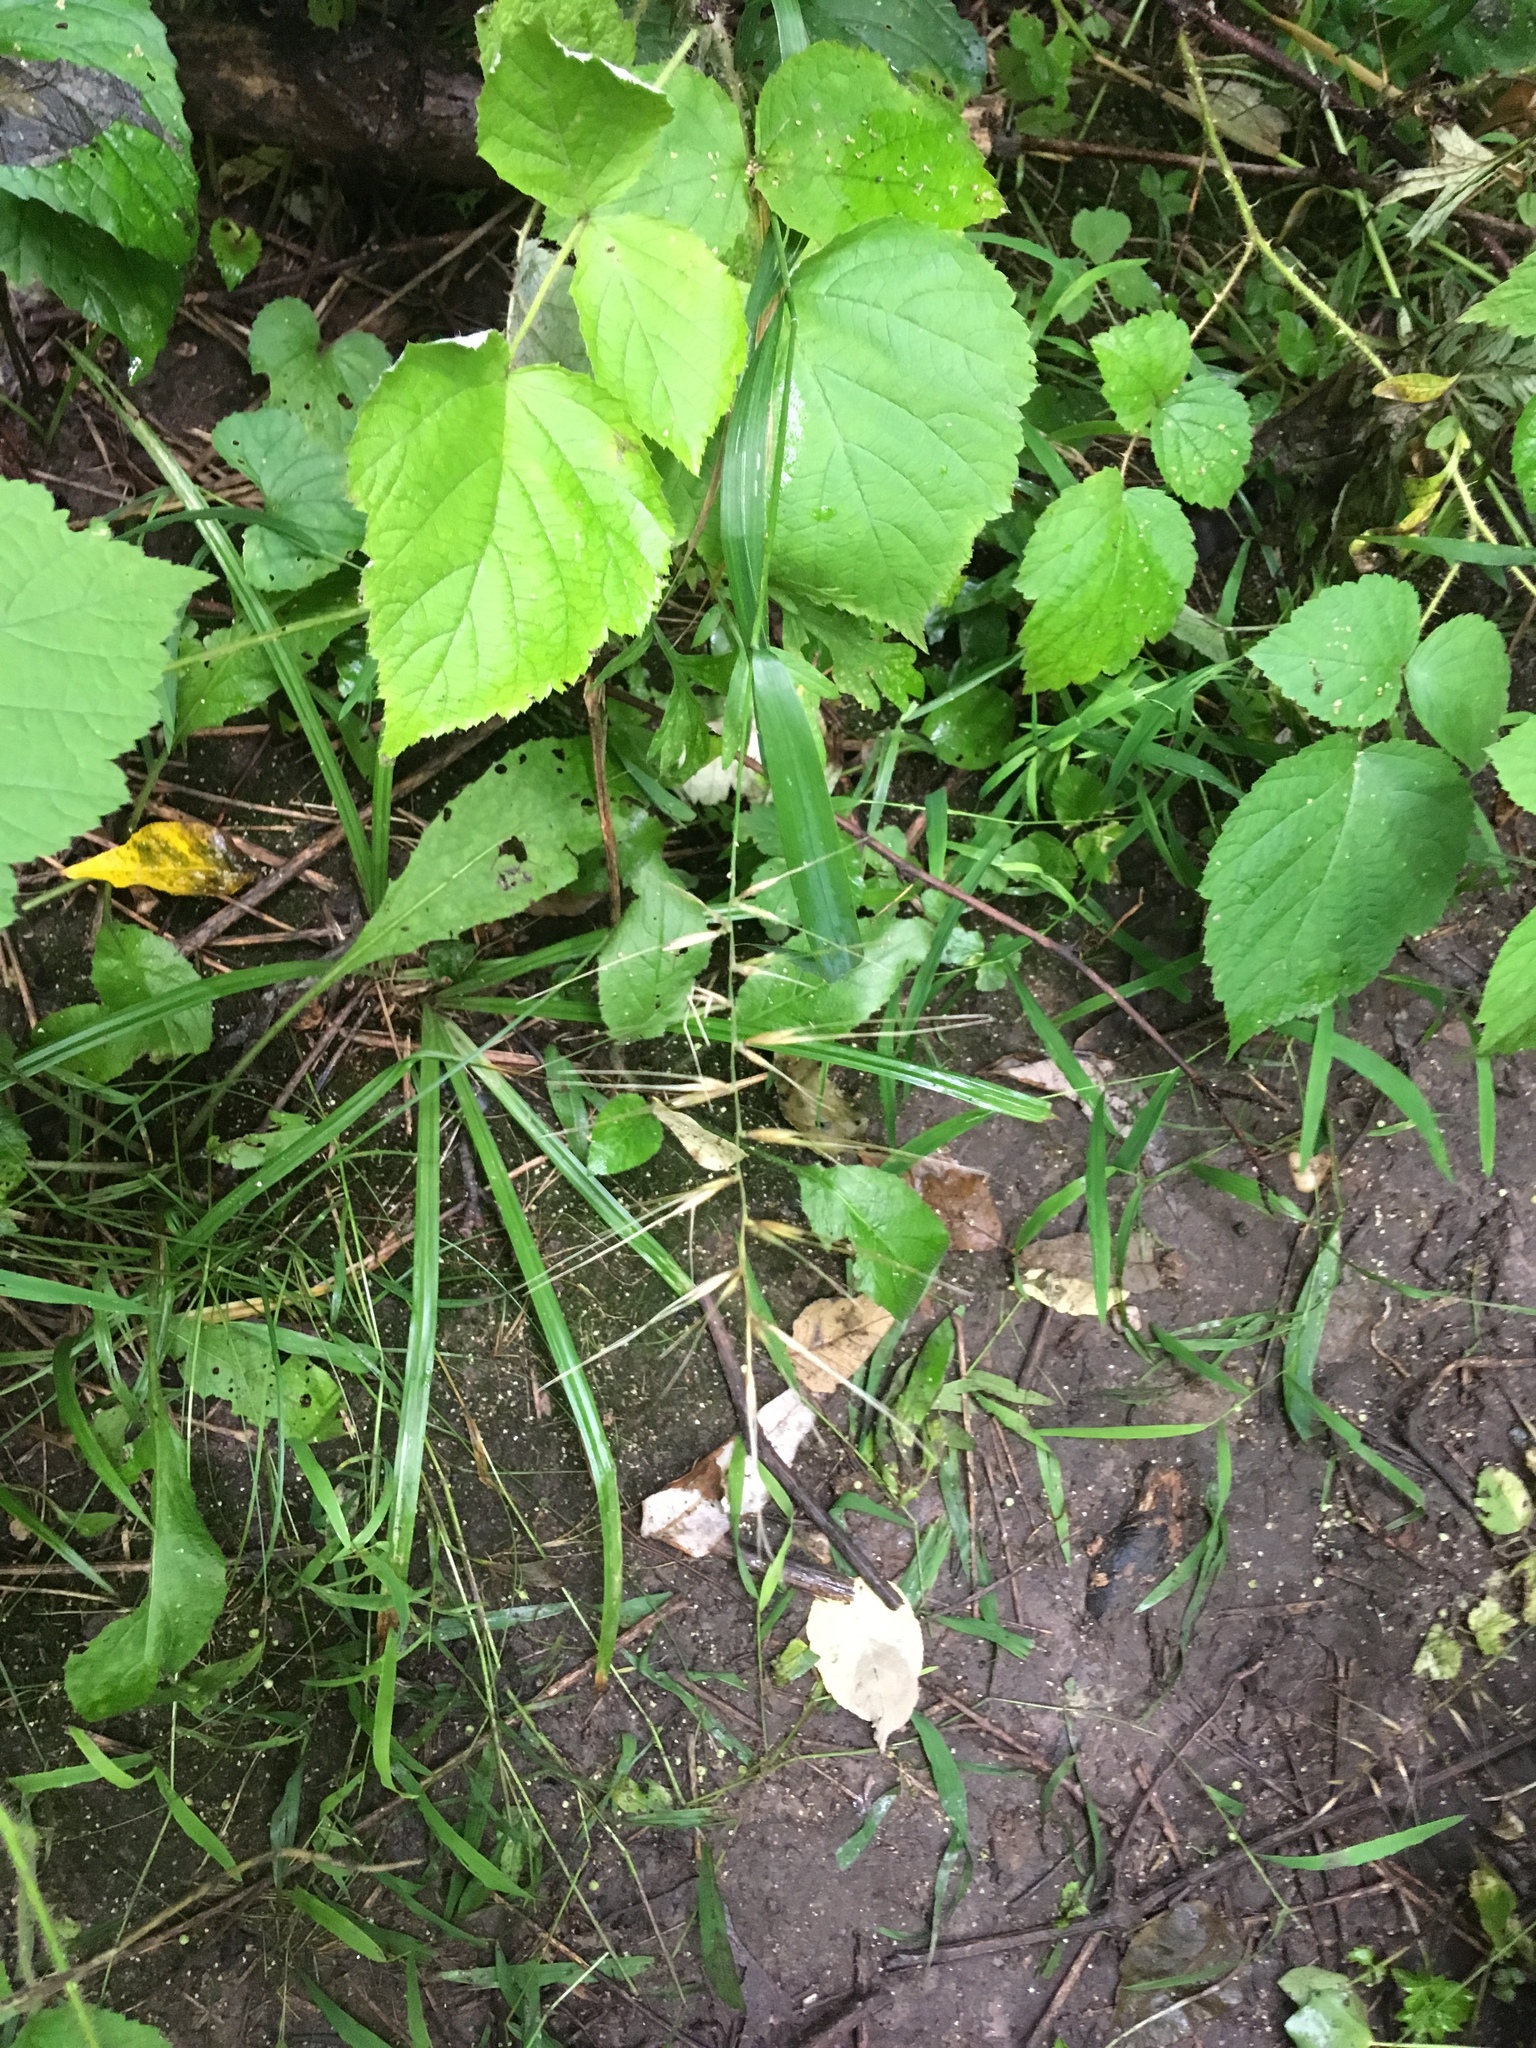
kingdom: Plantae
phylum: Tracheophyta
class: Liliopsida
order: Poales
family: Poaceae
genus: Elymus
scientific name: Elymus hystrix
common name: Bottlebrush grass
